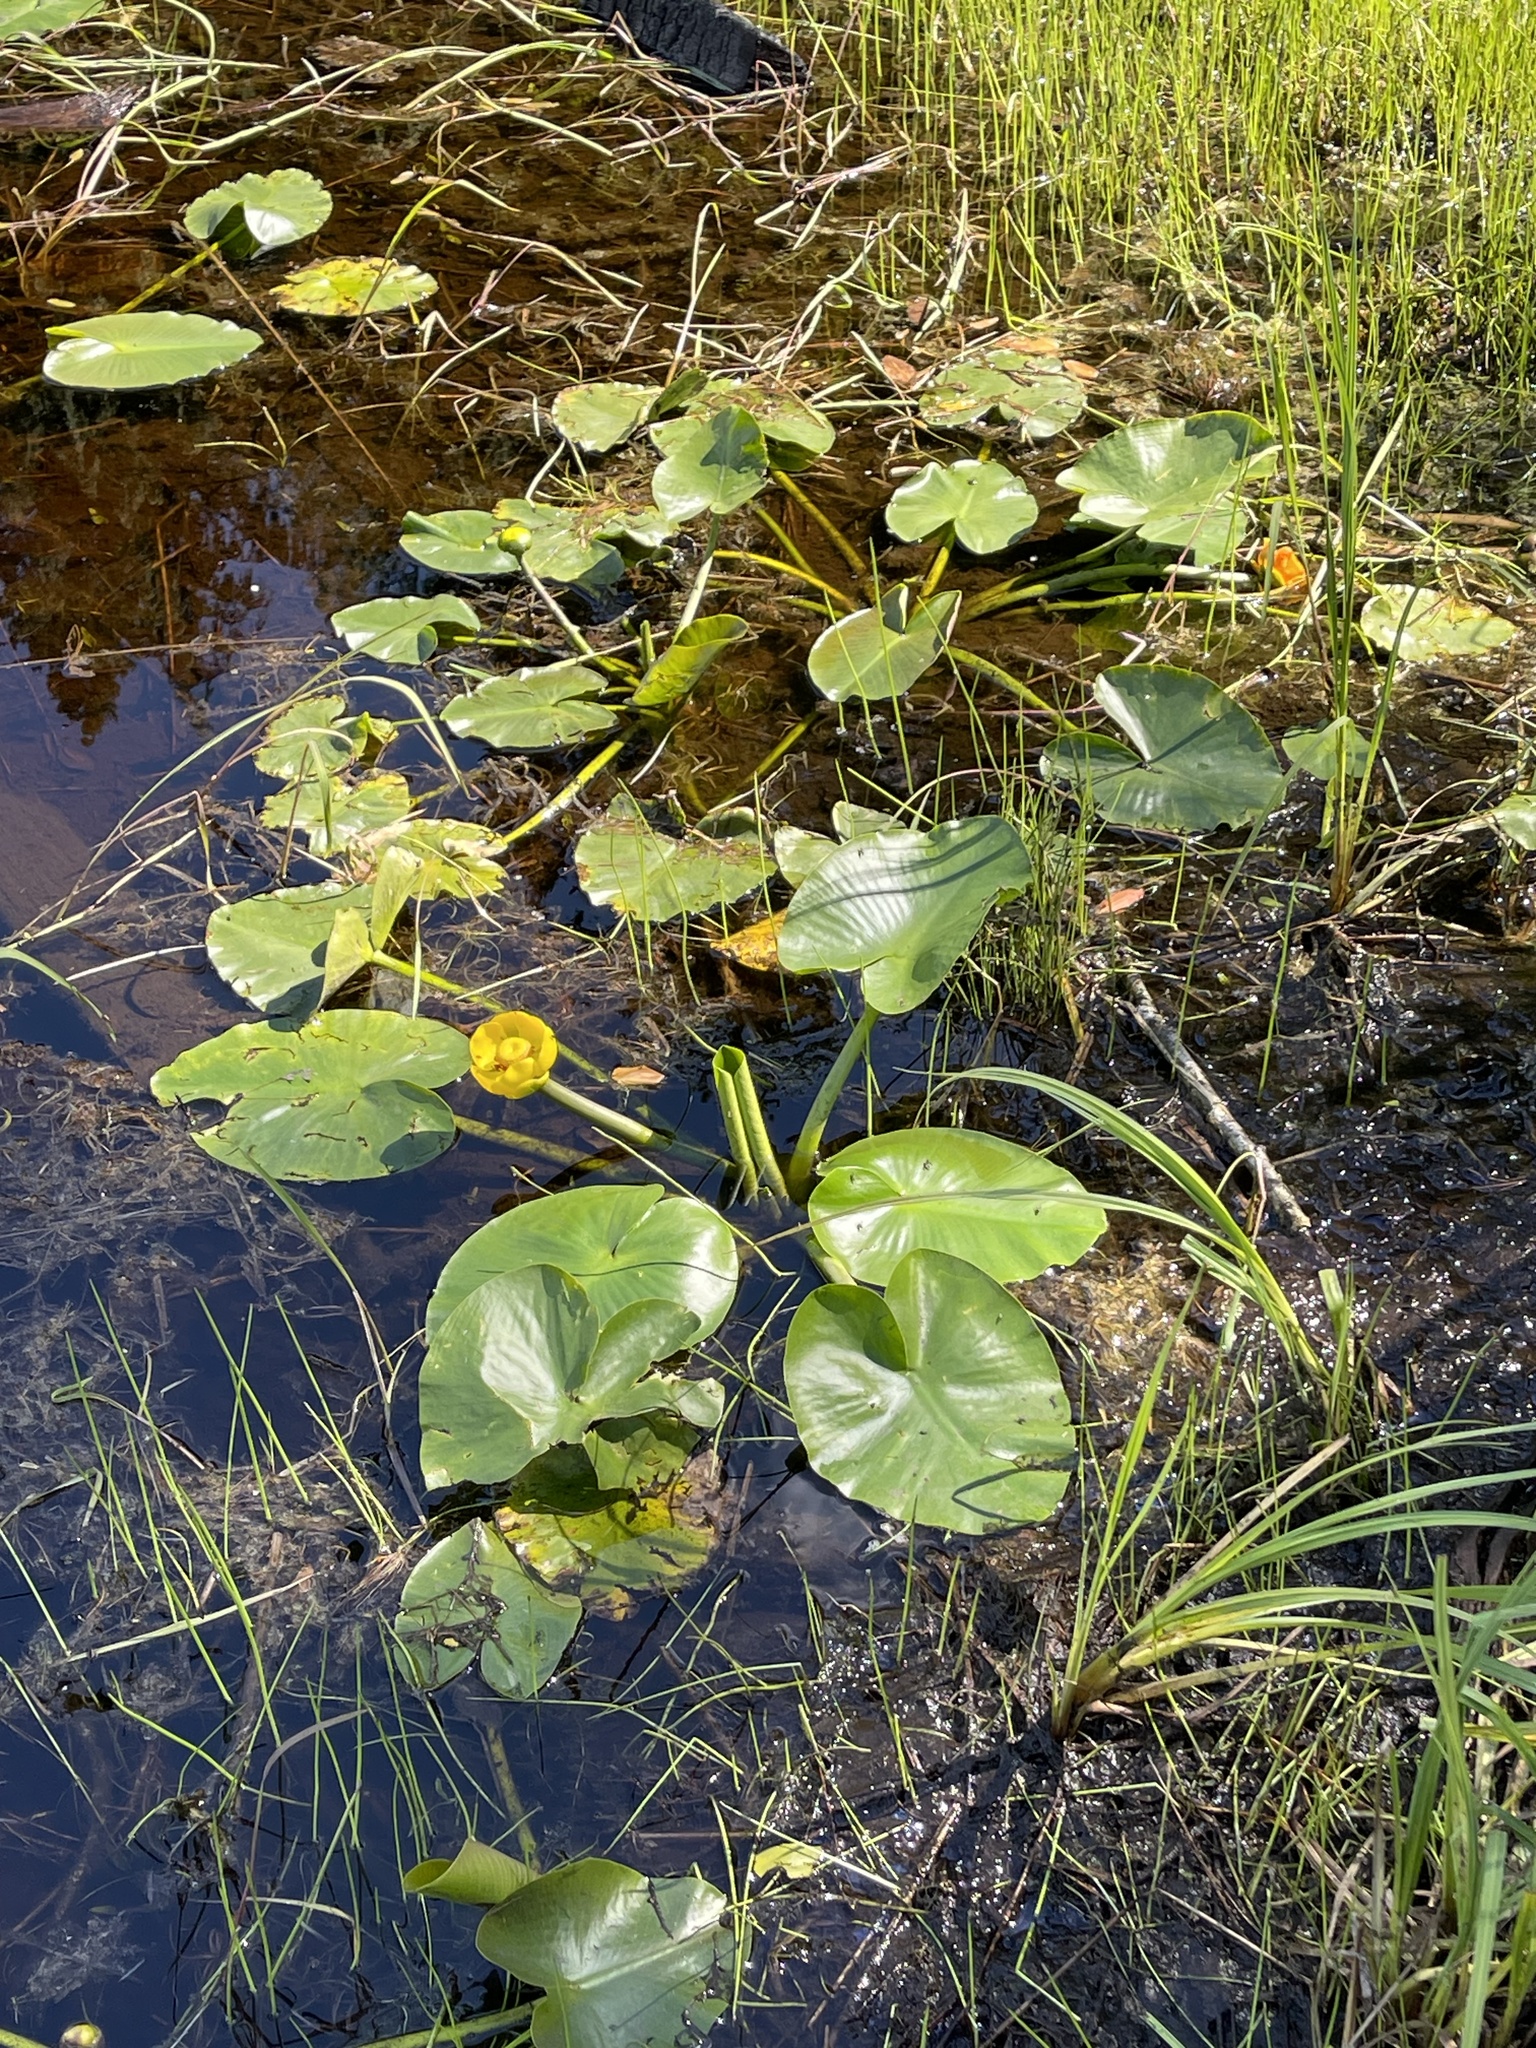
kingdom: Plantae
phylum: Tracheophyta
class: Magnoliopsida
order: Nymphaeales
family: Nymphaeaceae
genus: Nuphar
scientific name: Nuphar polysepala
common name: Rocky mountain cow-lily
